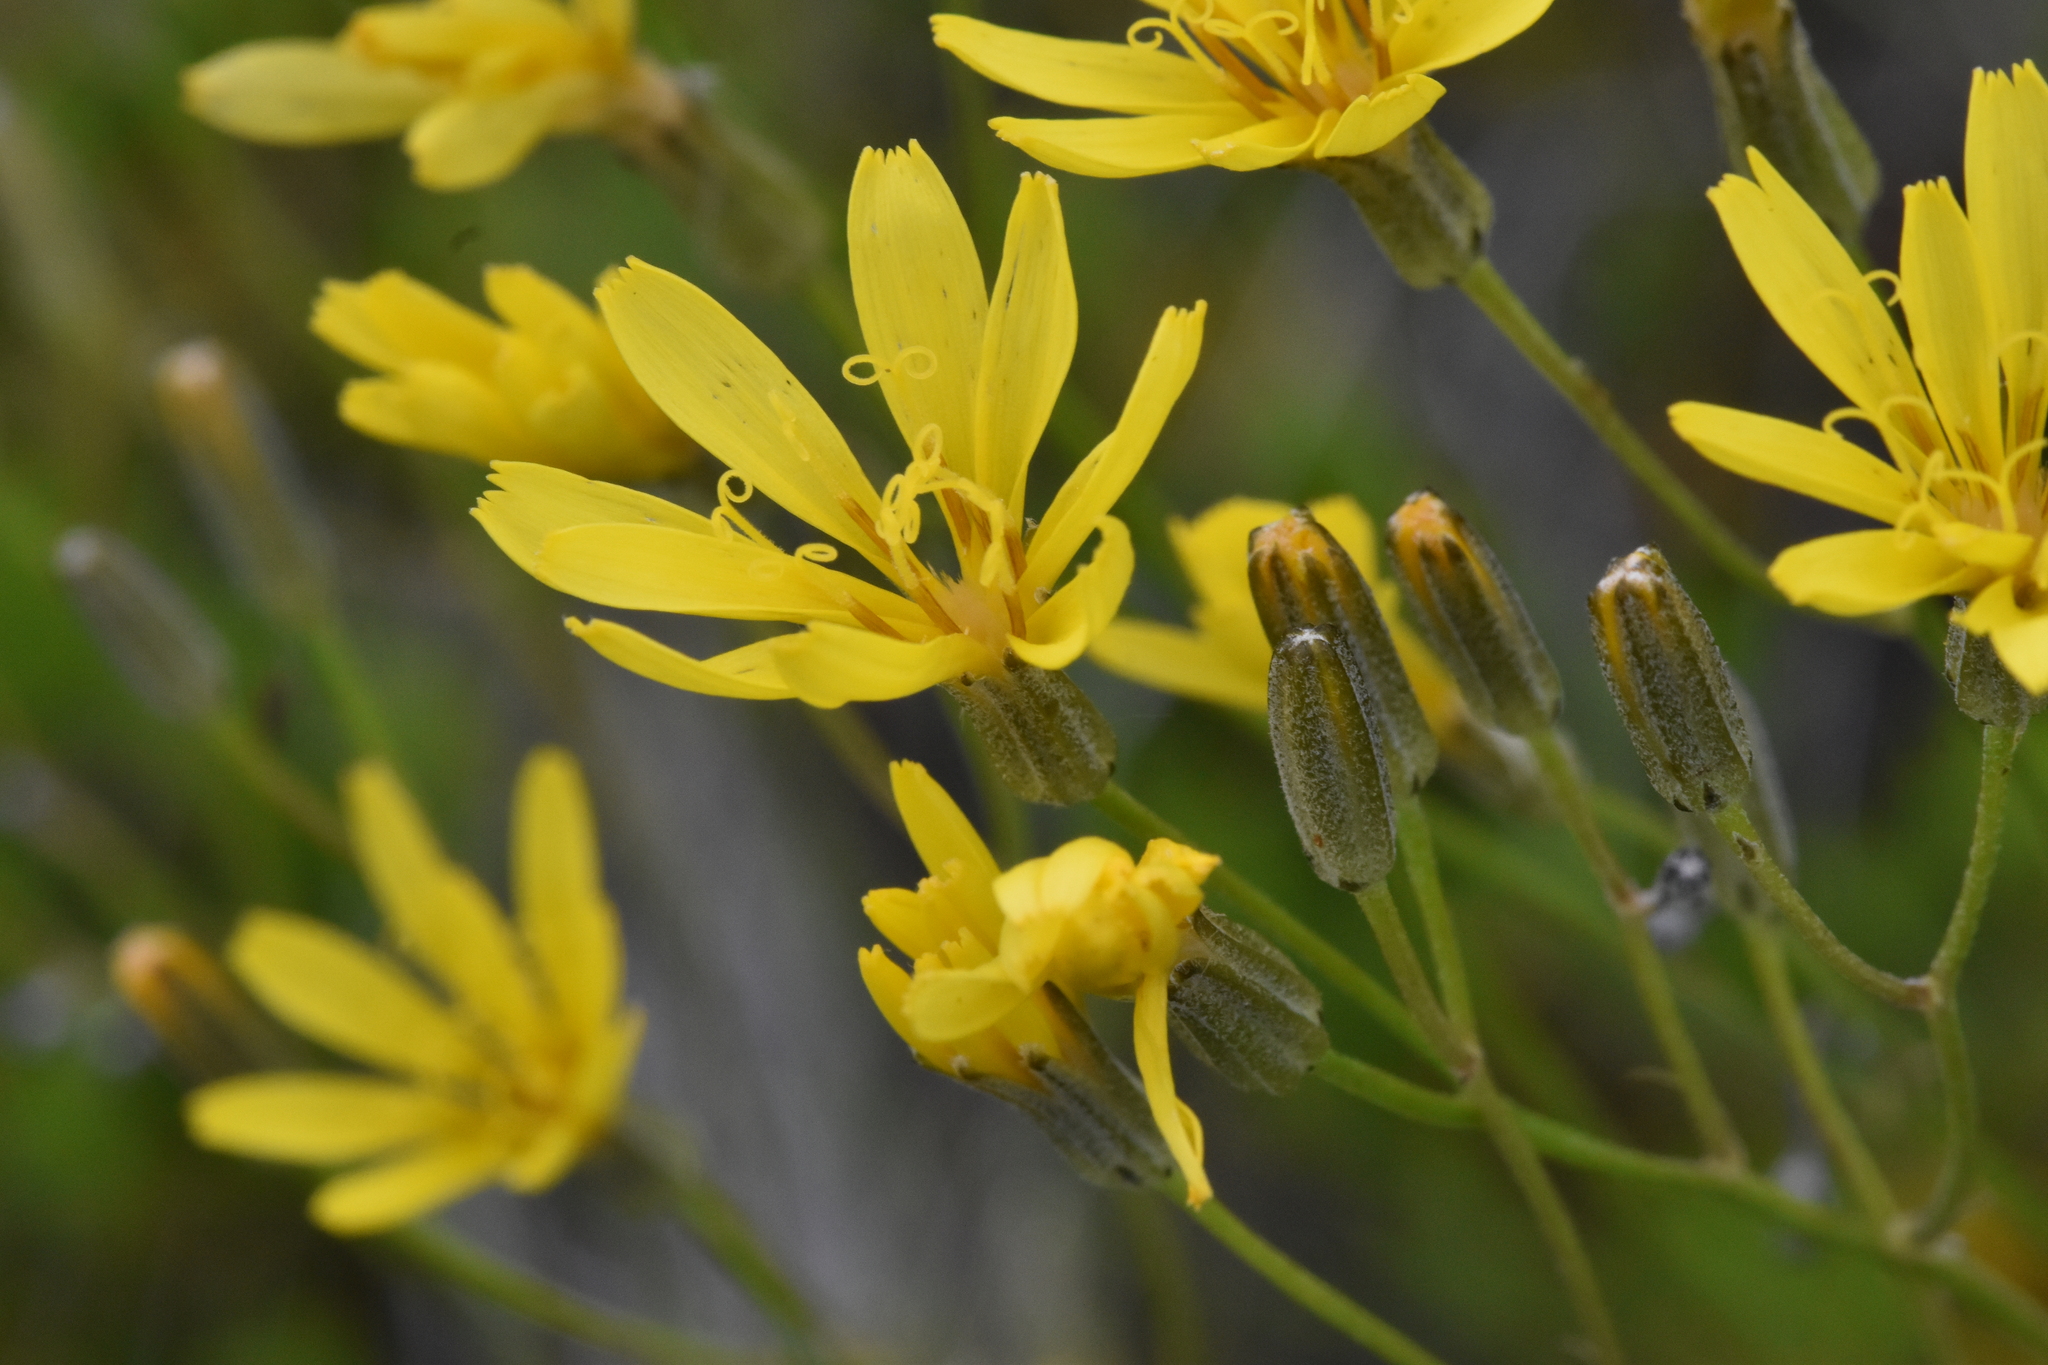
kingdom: Plantae
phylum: Tracheophyta
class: Magnoliopsida
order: Asterales
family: Asteraceae
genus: Crepis
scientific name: Crepis atribarba
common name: Dark hawk's-beard
